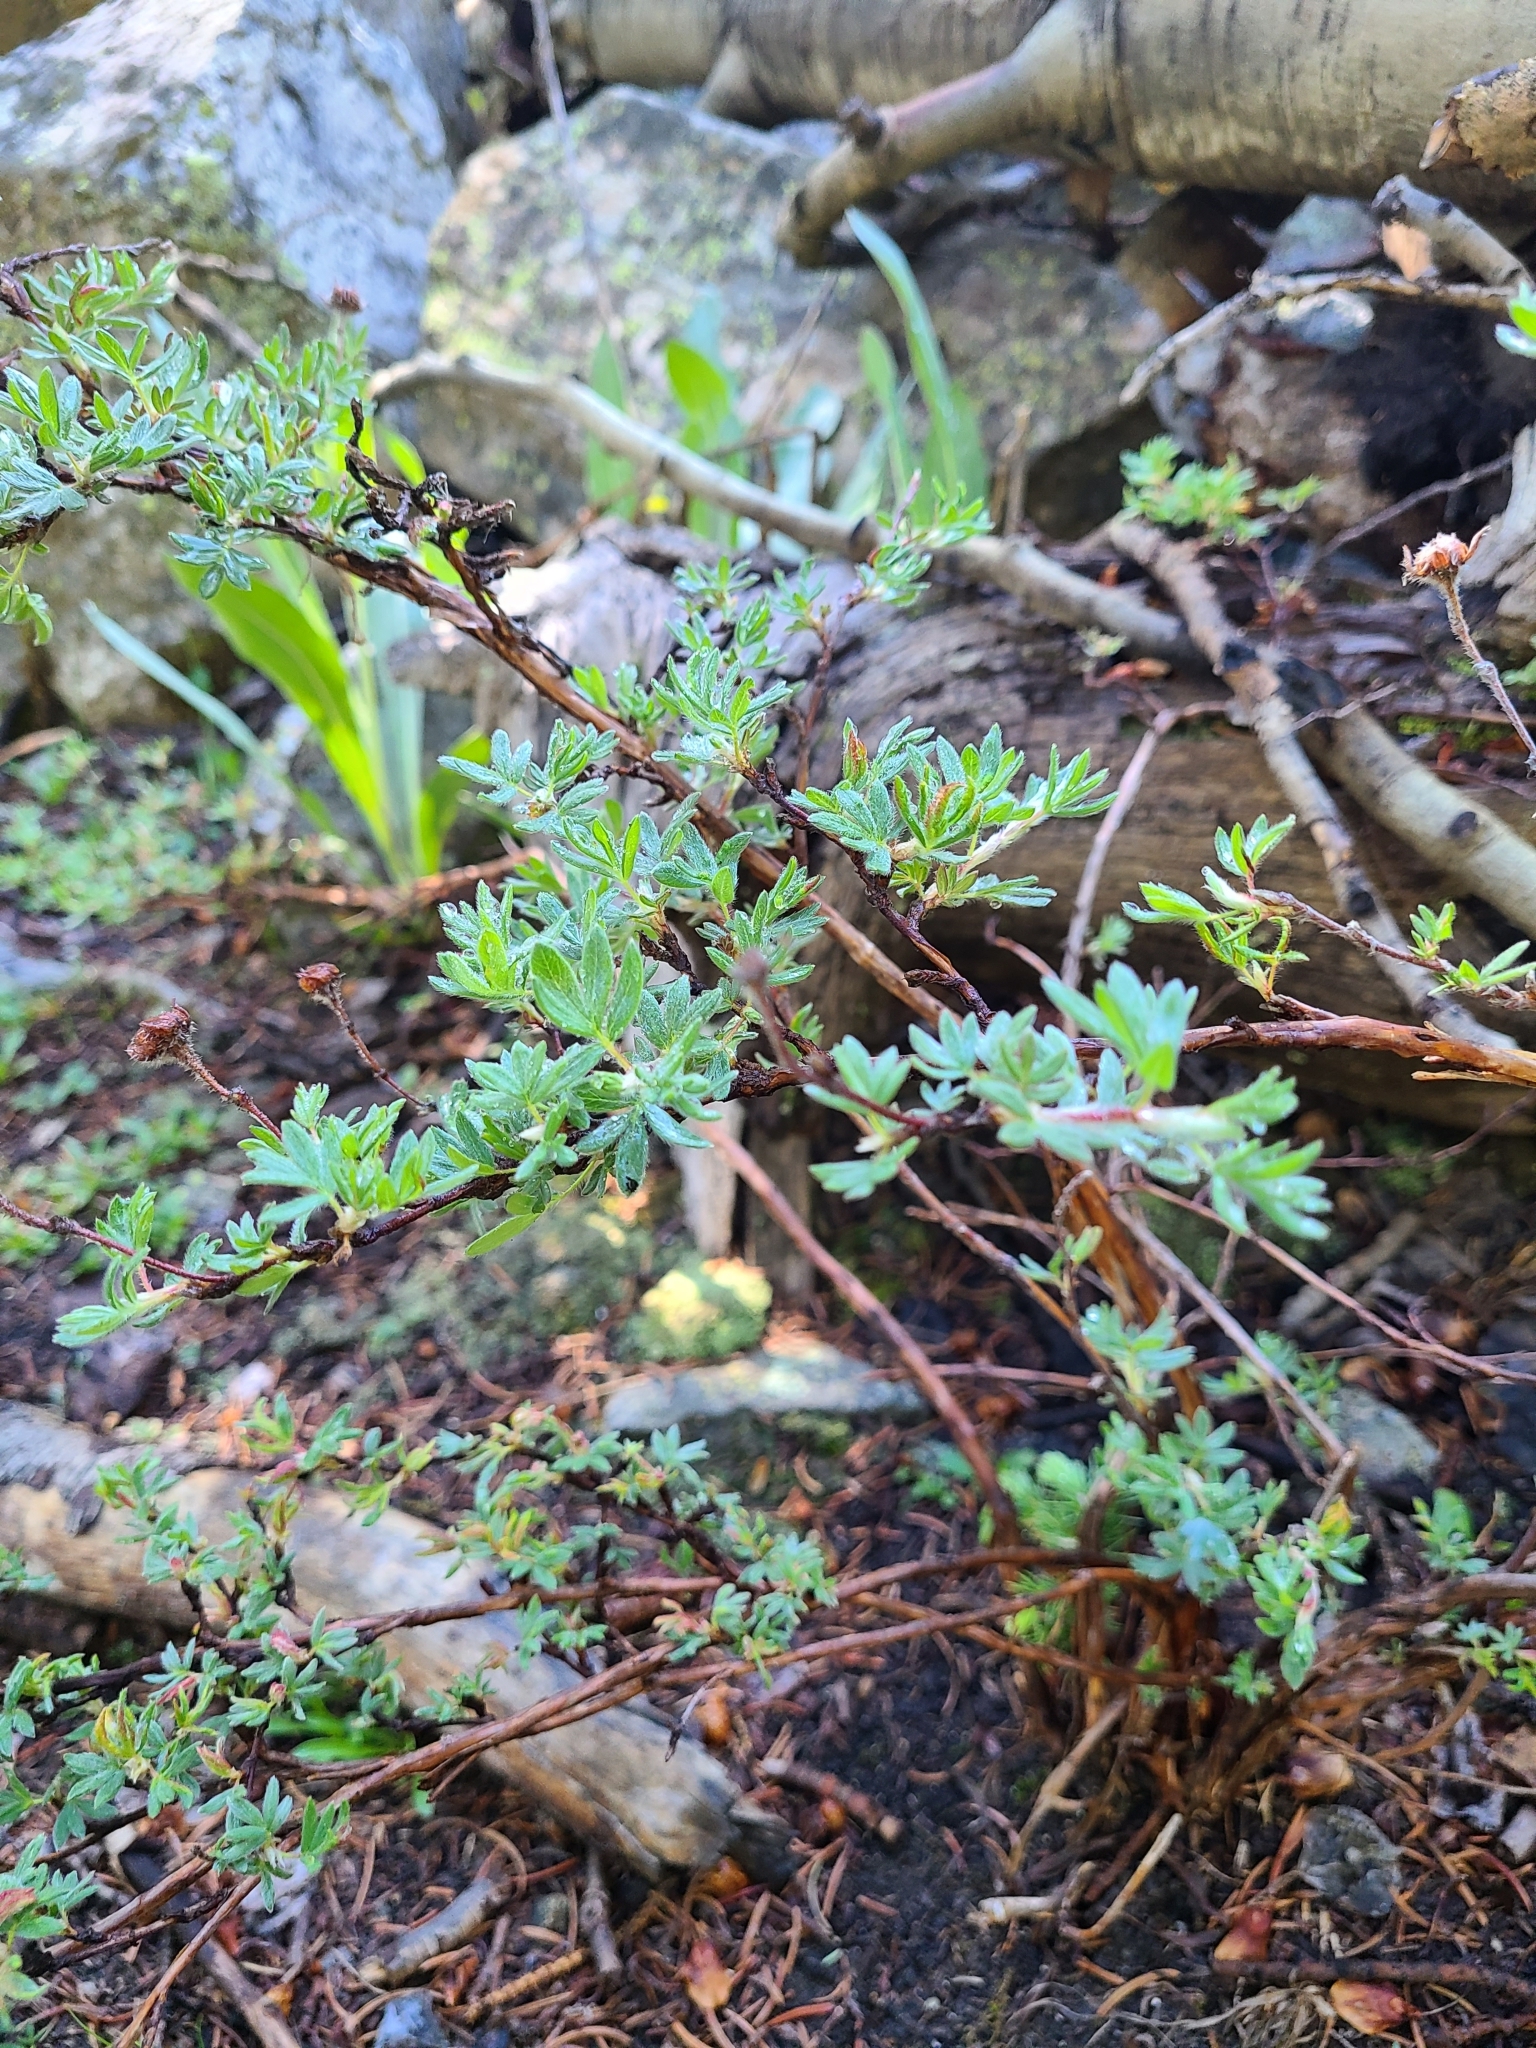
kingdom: Plantae
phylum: Tracheophyta
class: Magnoliopsida
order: Rosales
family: Rosaceae
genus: Dasiphora
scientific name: Dasiphora fruticosa
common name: Shrubby cinquefoil
